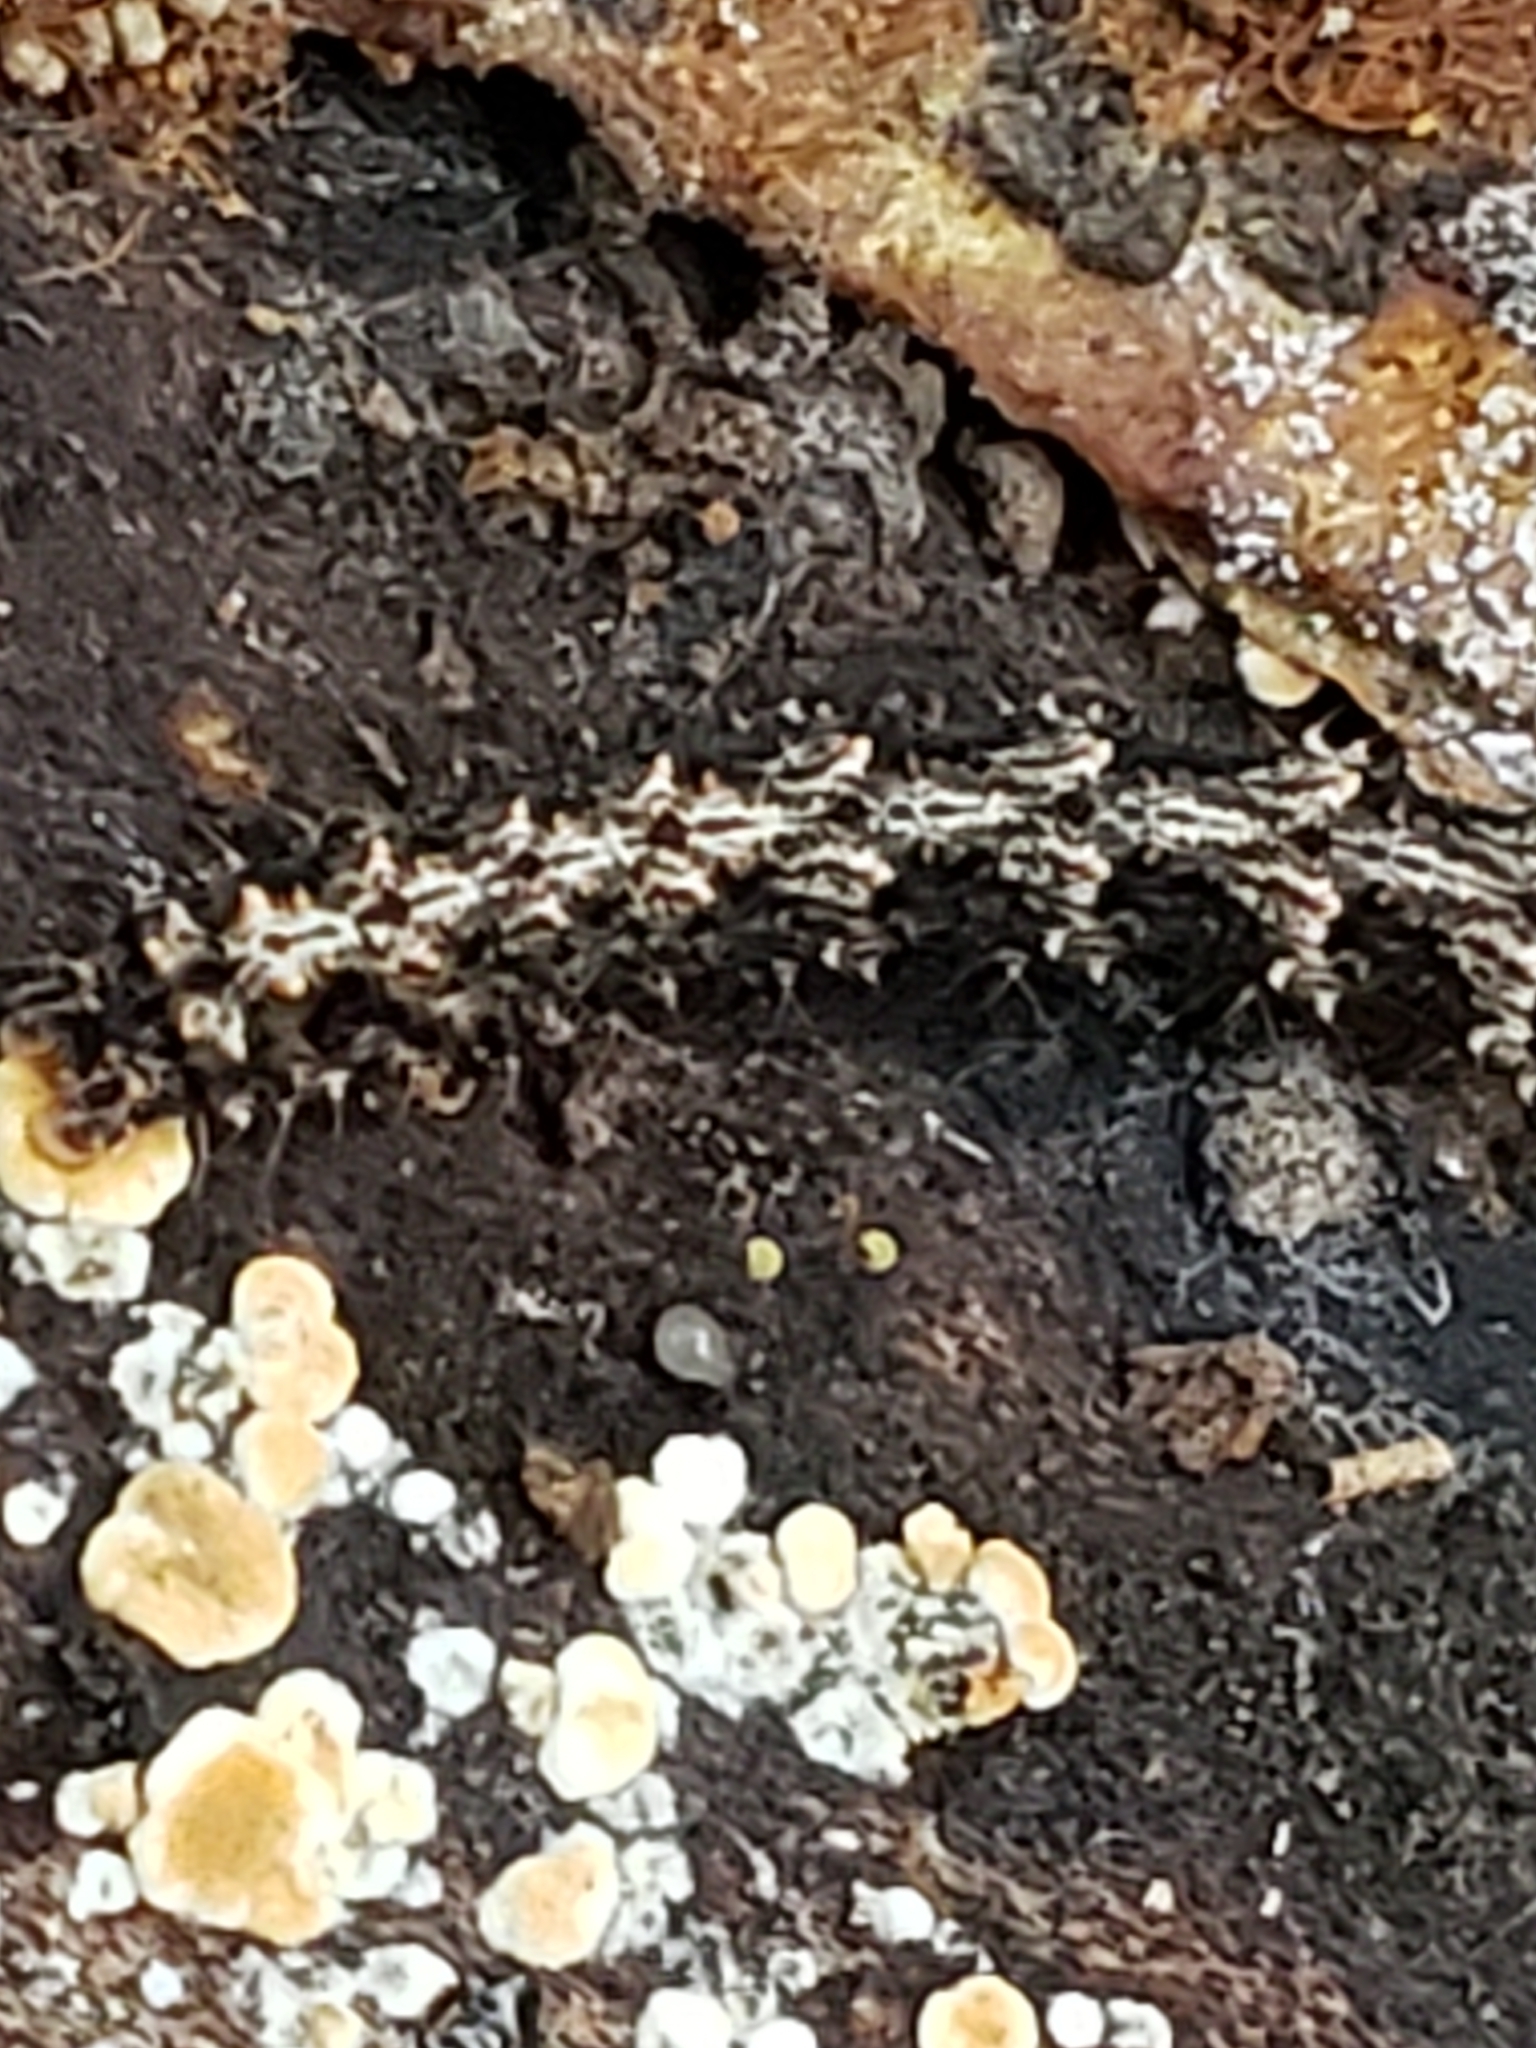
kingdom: Animalia
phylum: Arthropoda
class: Insecta
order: Lepidoptera
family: Erebidae
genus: Metalectra
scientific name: Metalectra discalis
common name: Common fungus moth
